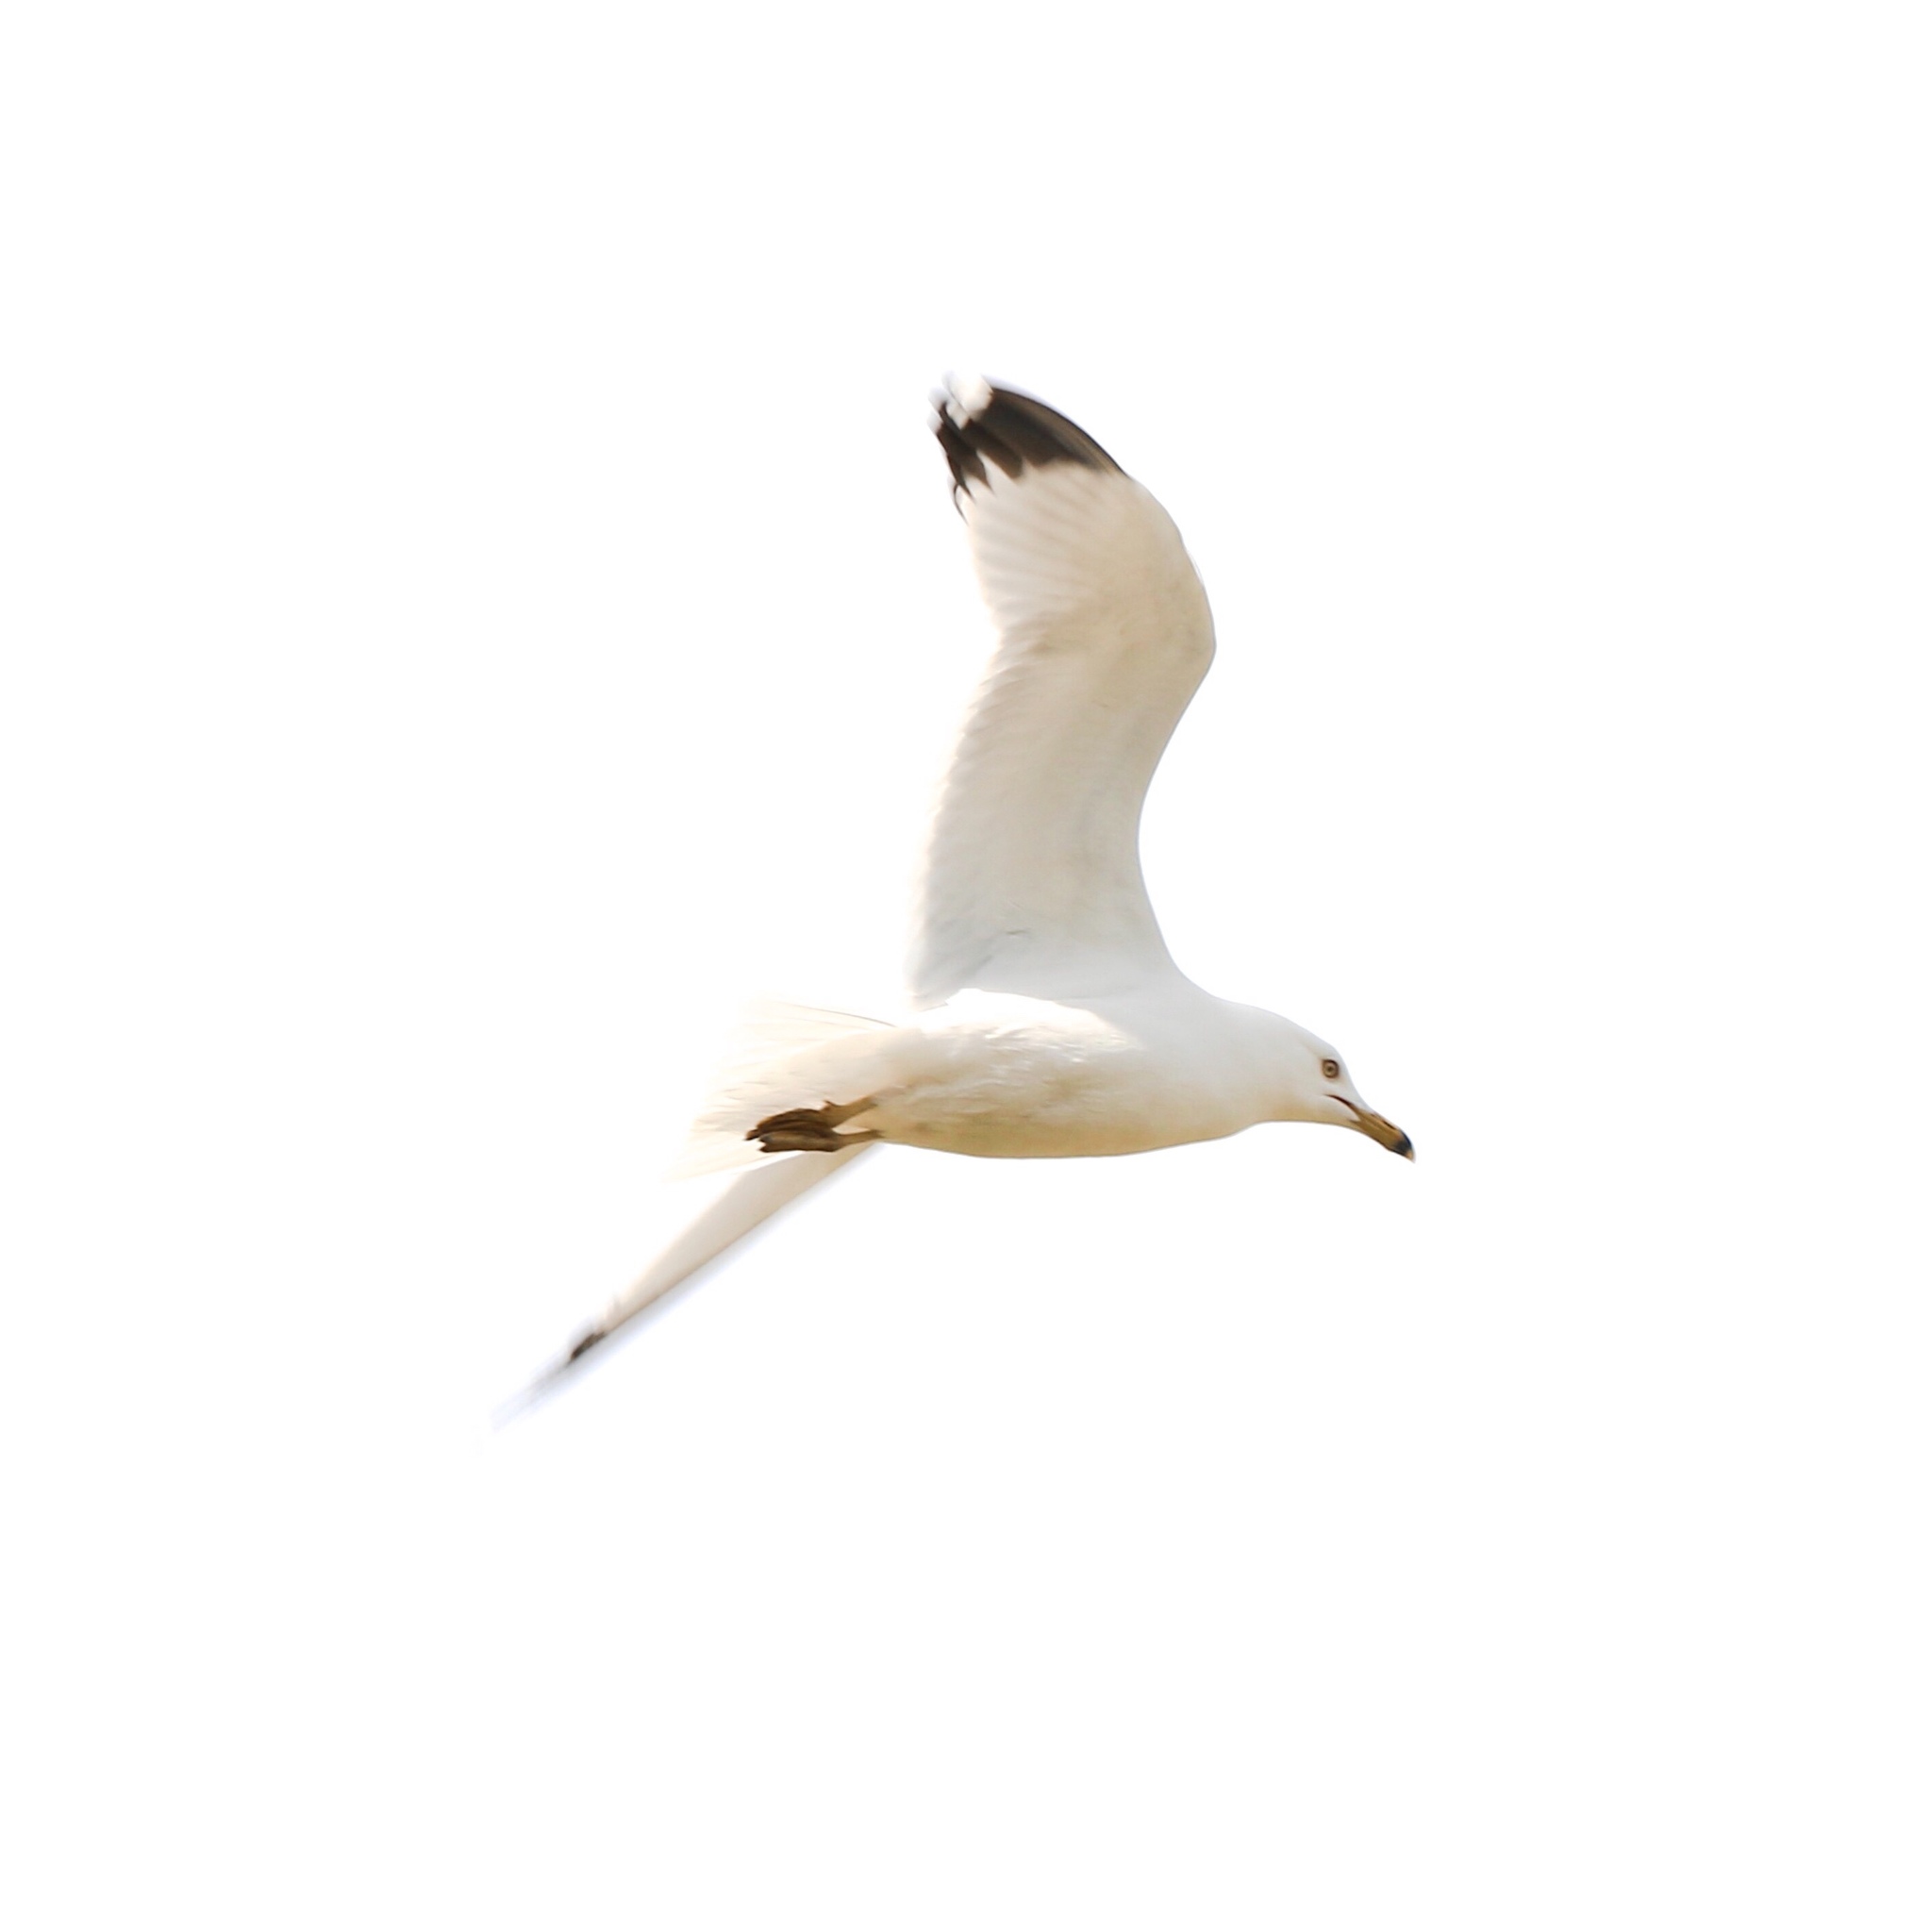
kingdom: Animalia
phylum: Chordata
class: Aves
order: Charadriiformes
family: Laridae
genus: Larus
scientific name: Larus delawarensis
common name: Ring-billed gull
